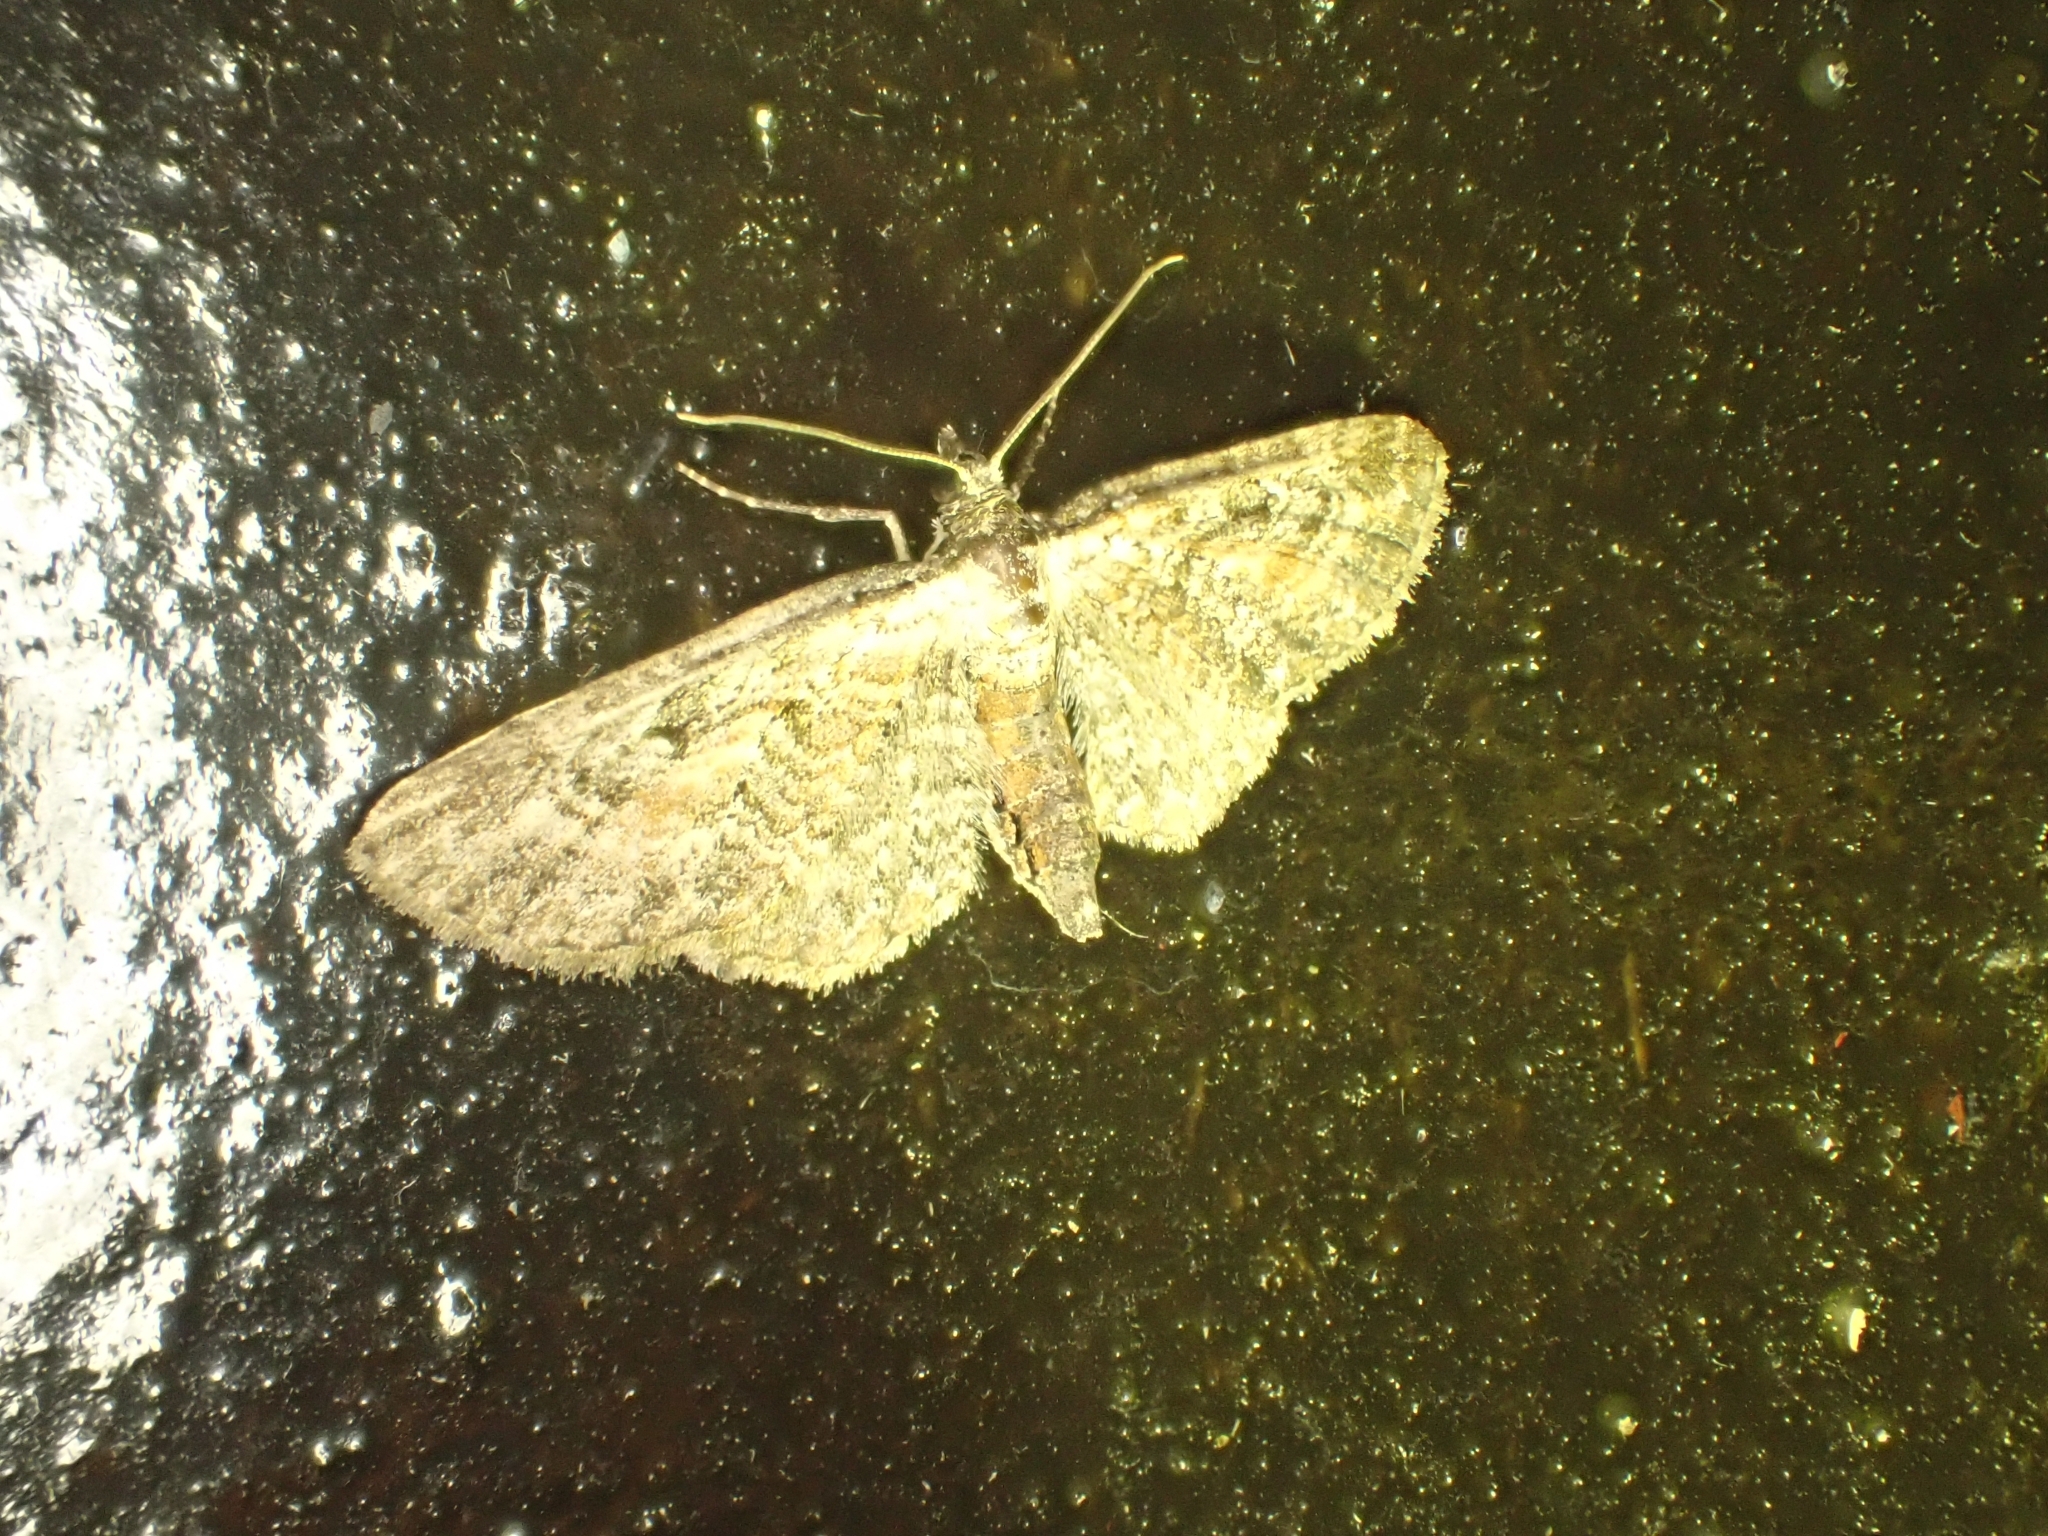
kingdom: Animalia
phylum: Arthropoda
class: Insecta
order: Lepidoptera
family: Geometridae
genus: Eupithecia
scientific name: Eupithecia icterata
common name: Tawny speckled pug
